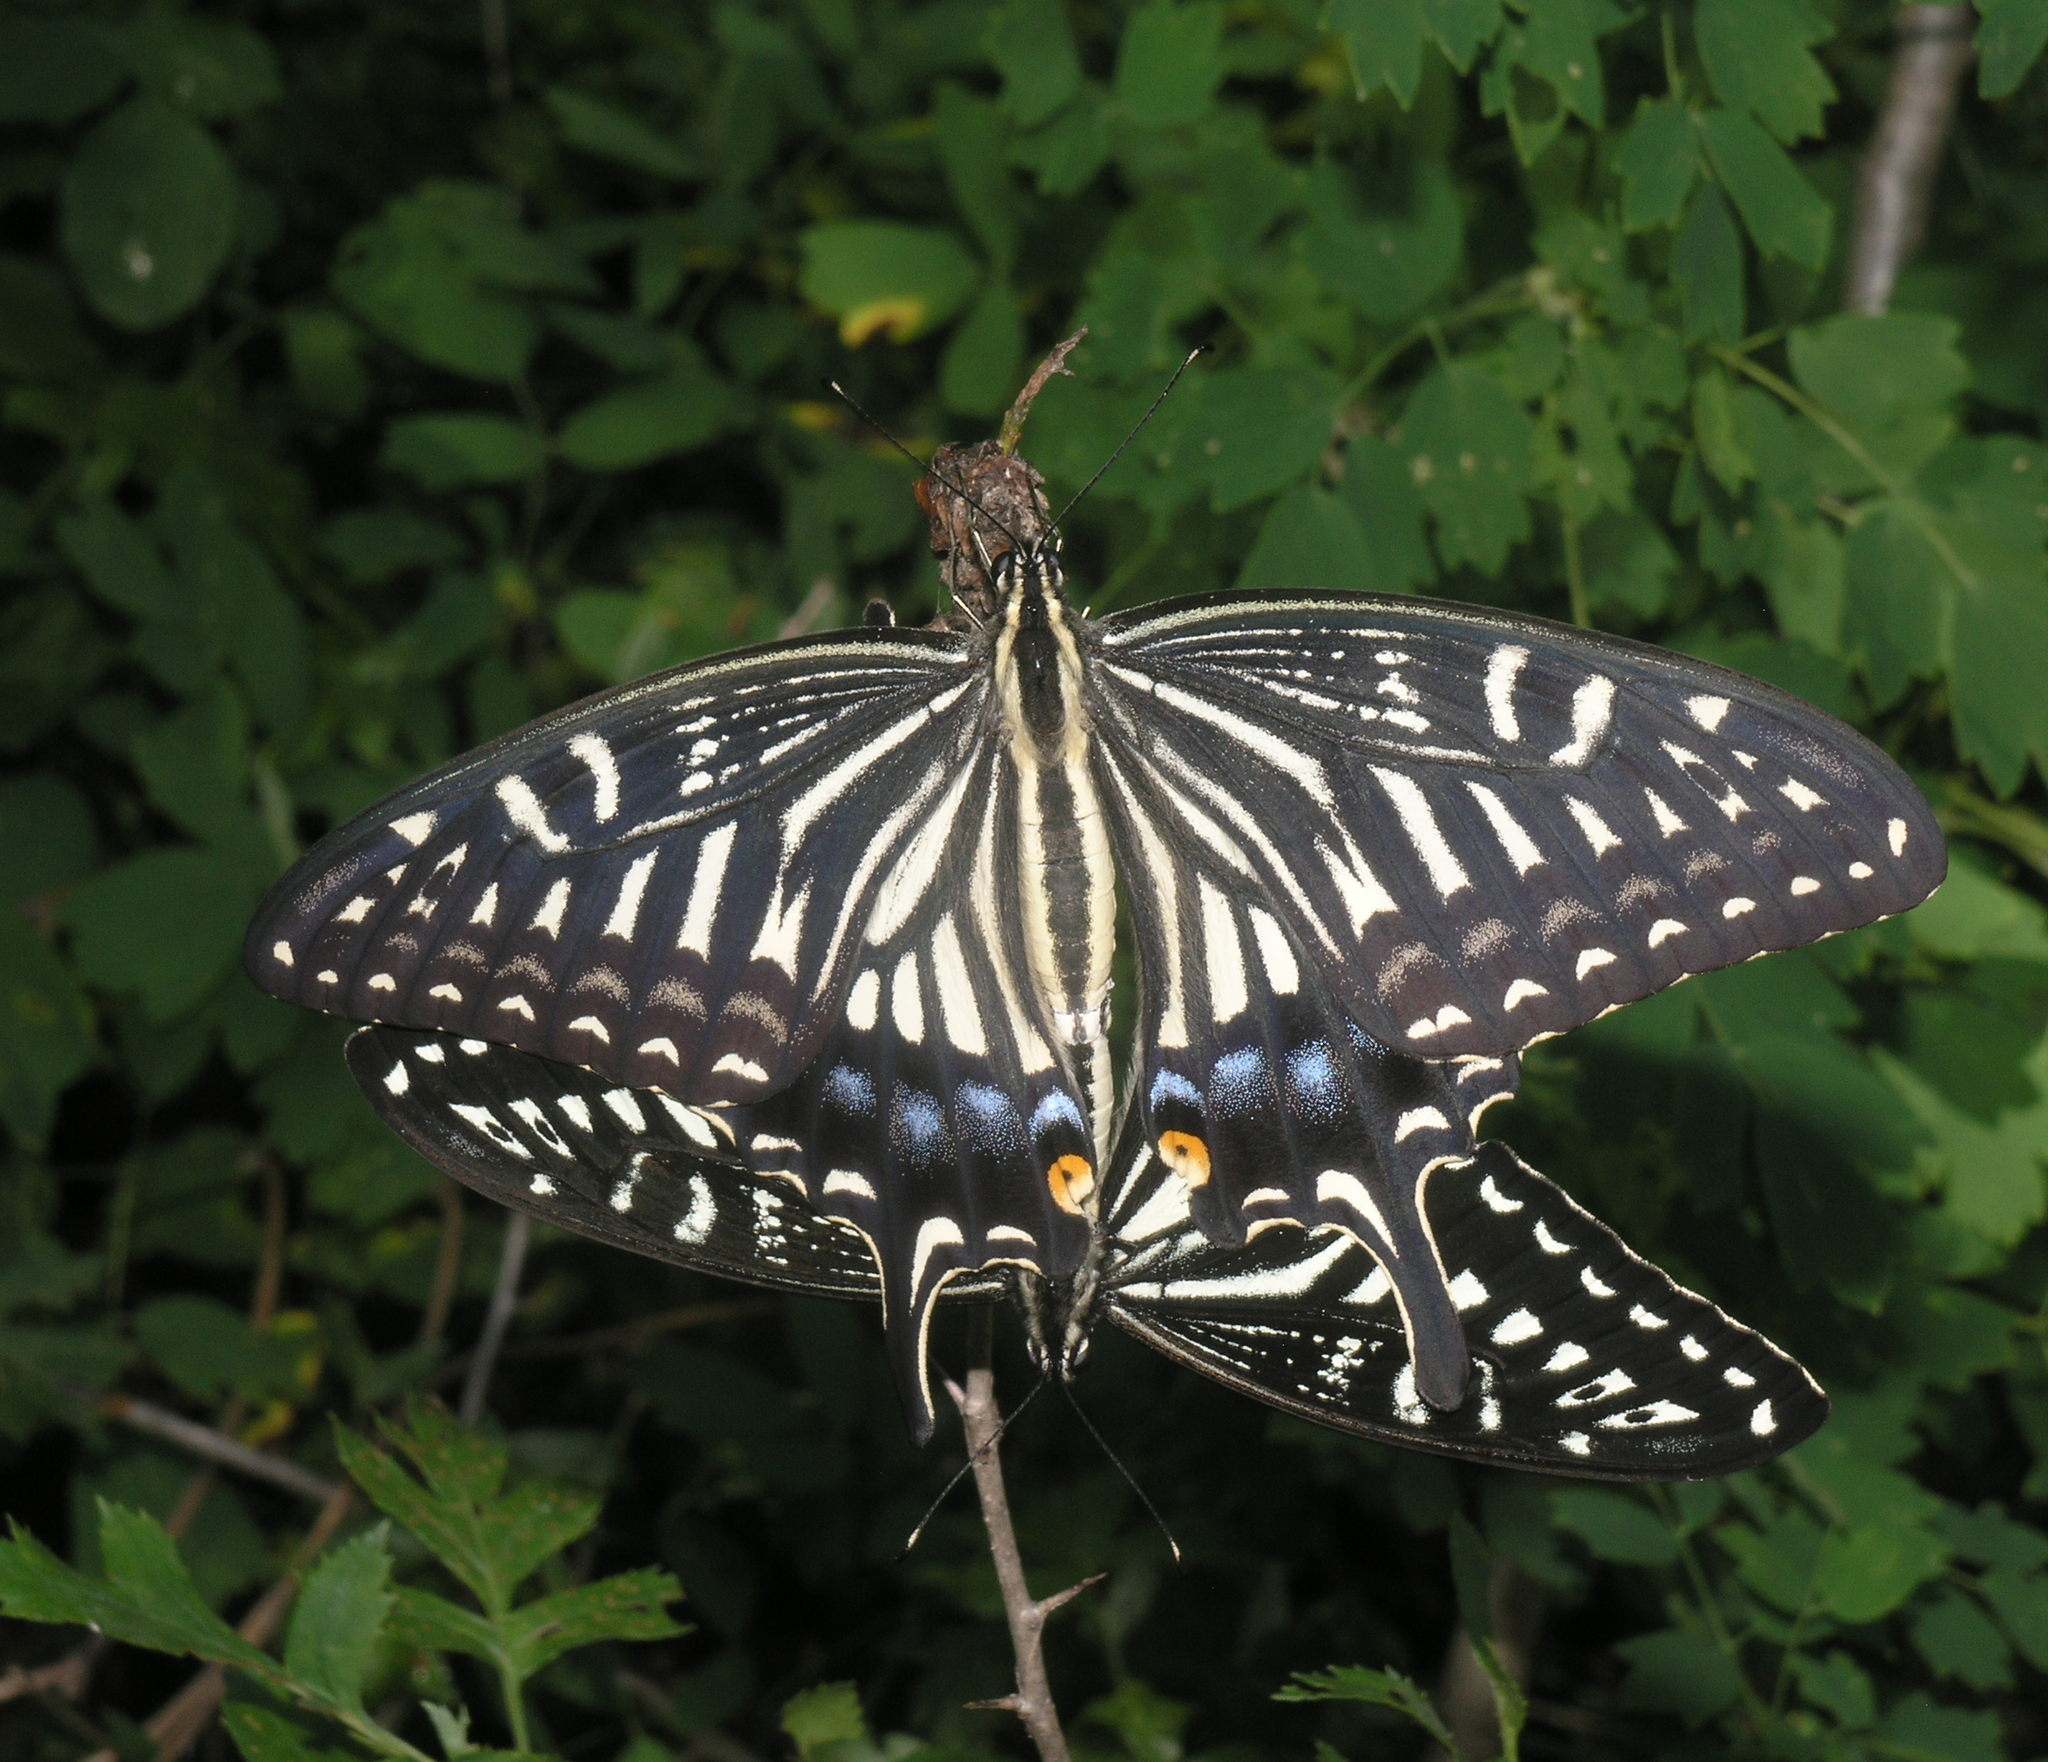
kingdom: Animalia
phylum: Arthropoda
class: Insecta
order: Lepidoptera
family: Papilionidae
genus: Papilio
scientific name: Papilio xuthus
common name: Asian swallowtail
